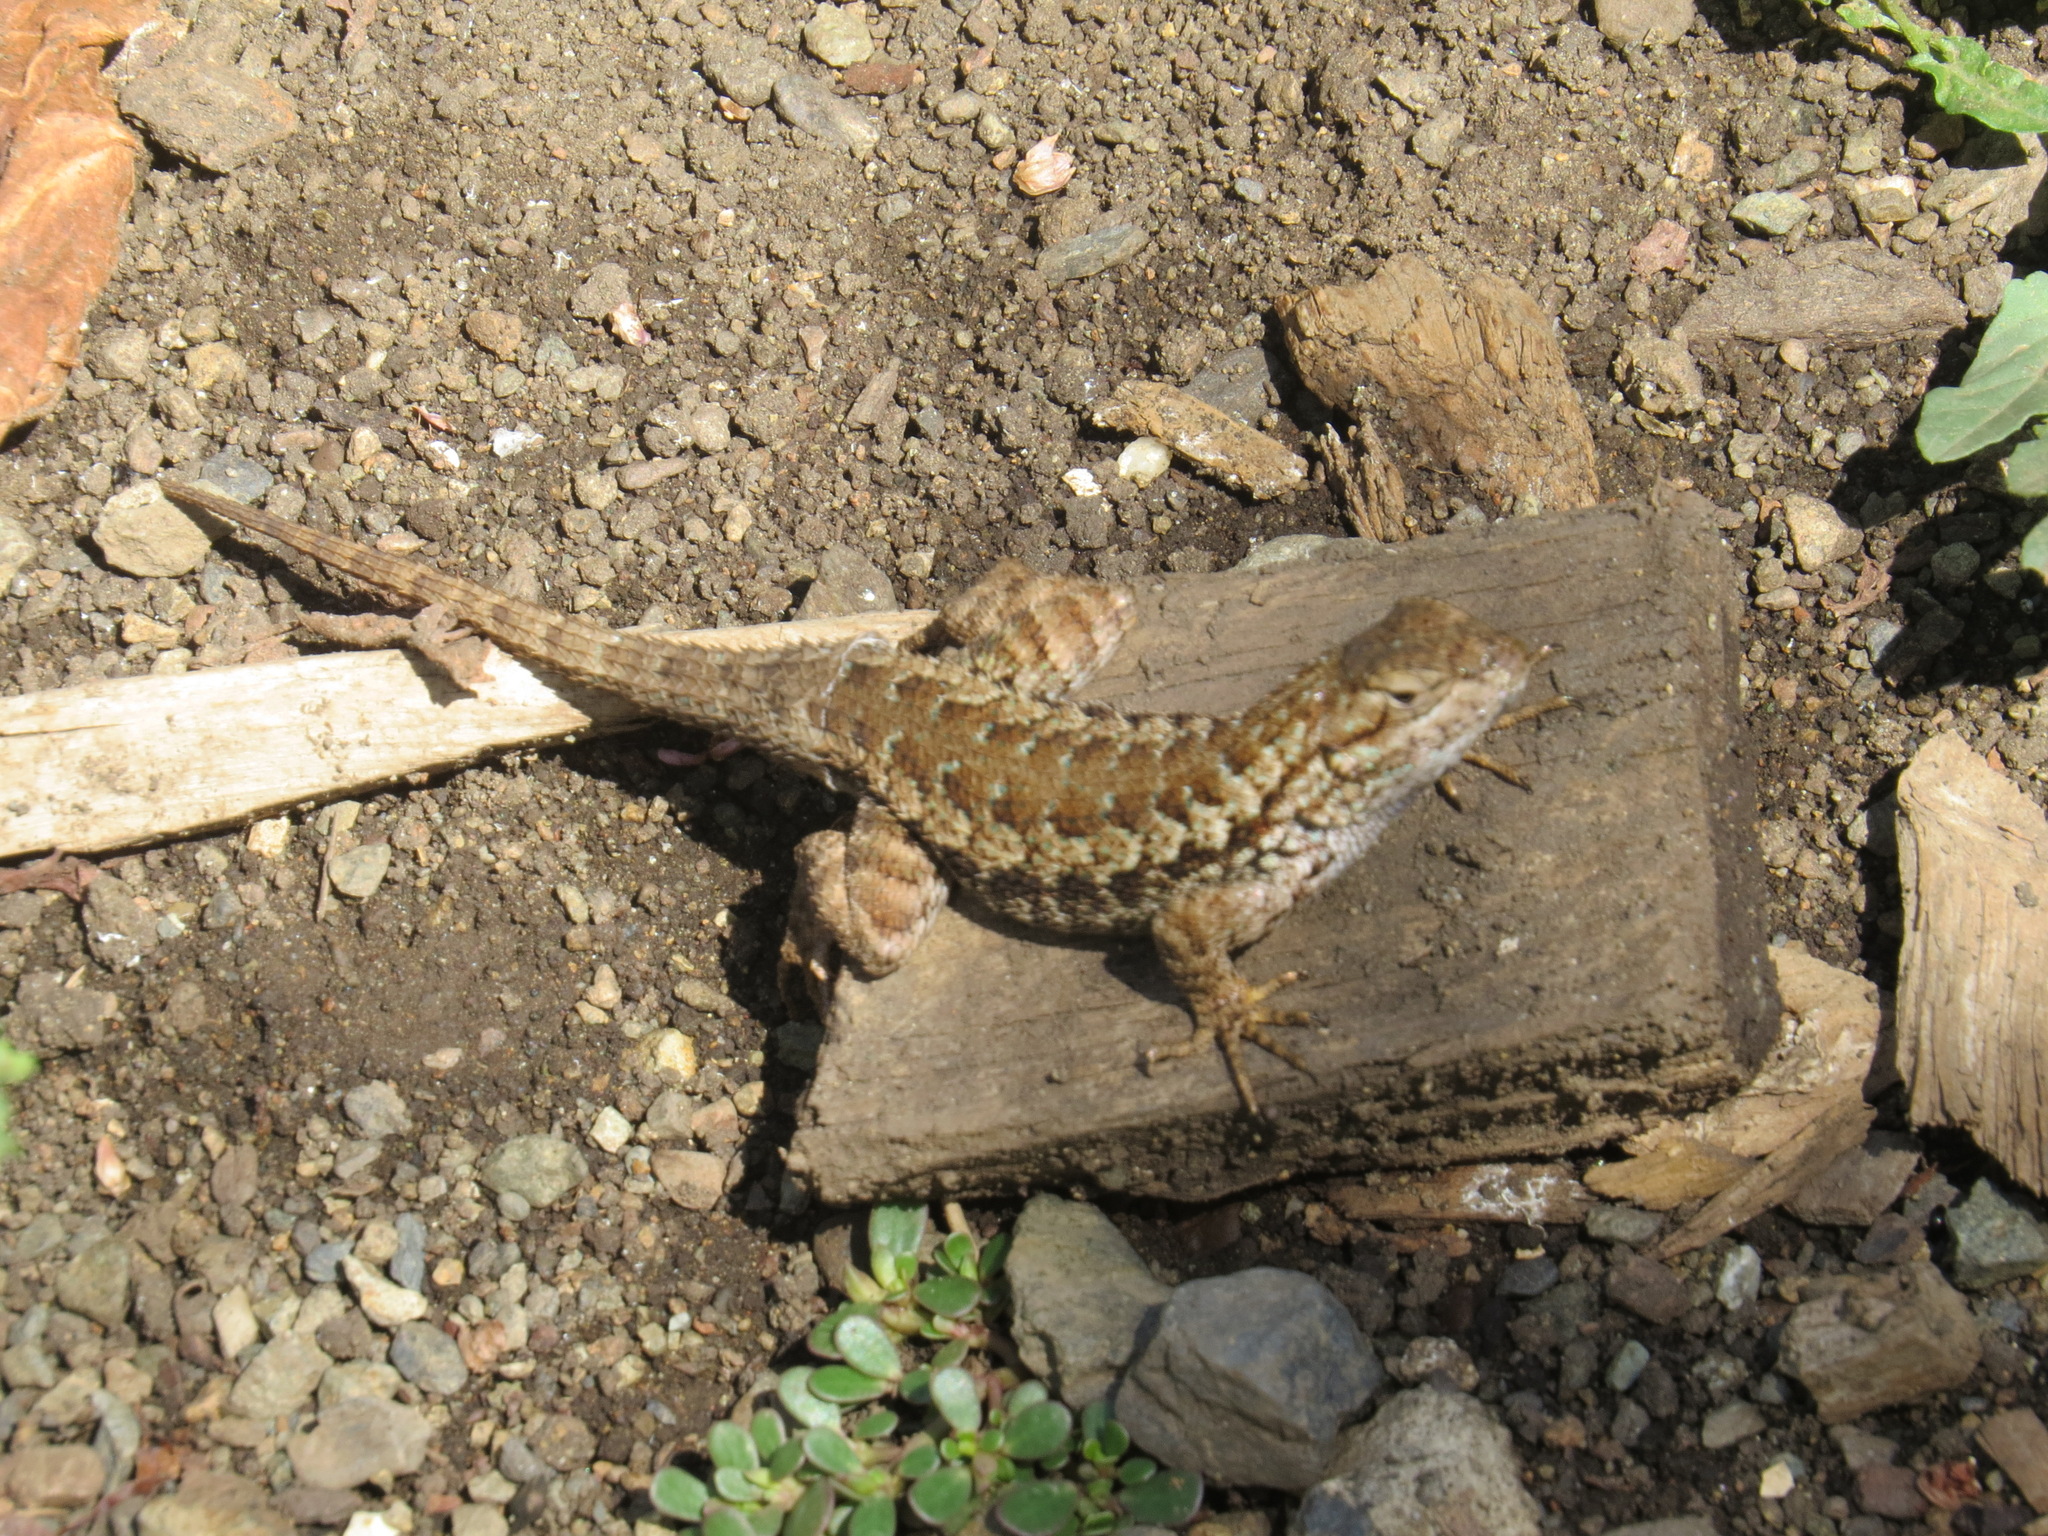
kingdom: Animalia
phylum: Chordata
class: Squamata
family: Phrynosomatidae
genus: Sceloporus
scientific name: Sceloporus occidentalis
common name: Western fence lizard
